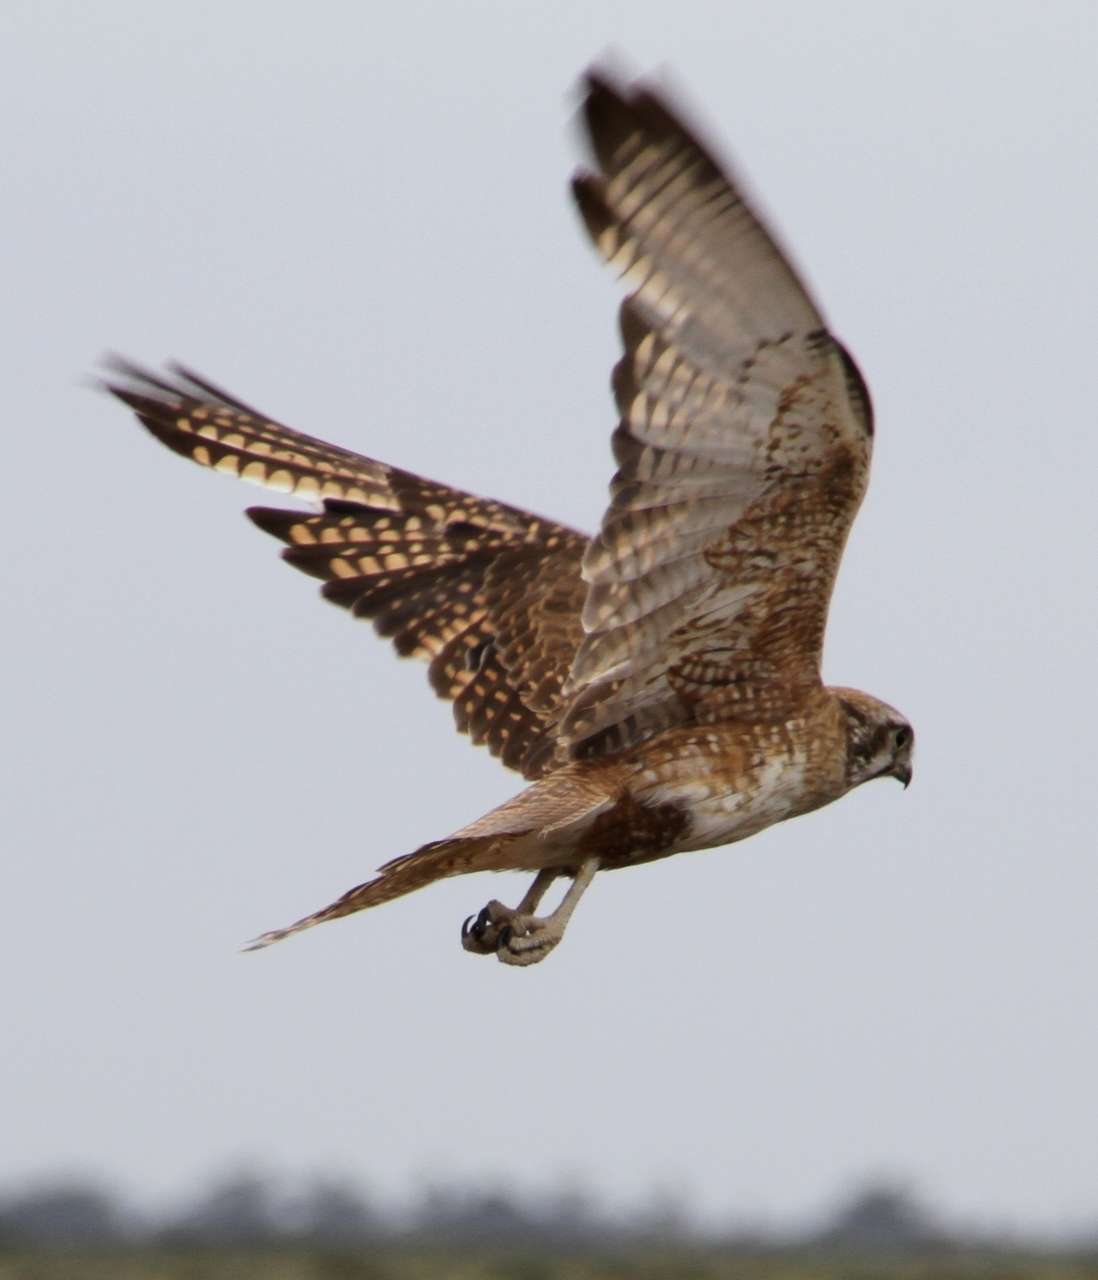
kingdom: Animalia
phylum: Chordata
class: Aves
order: Falconiformes
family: Falconidae
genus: Falco
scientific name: Falco berigora
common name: Brown falcon
